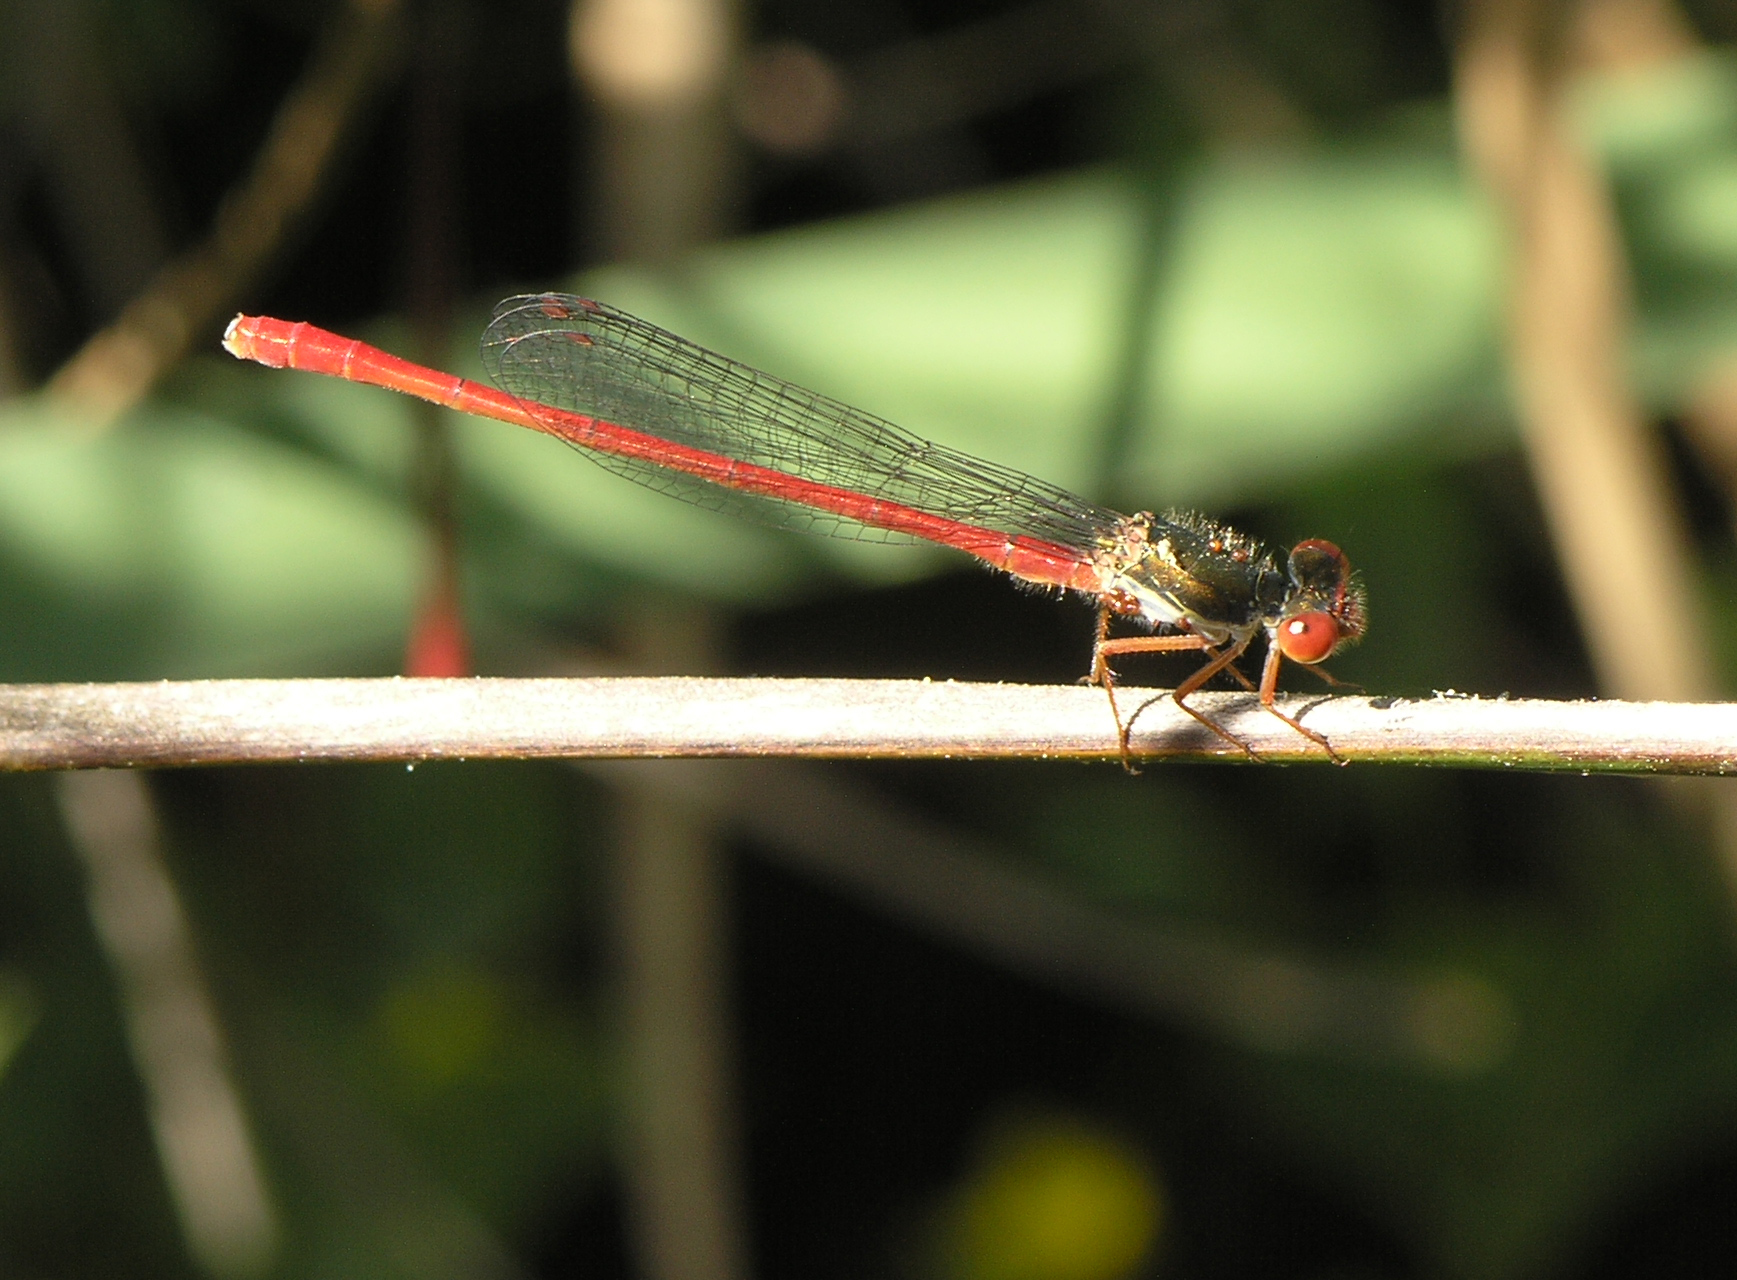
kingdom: Animalia
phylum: Arthropoda
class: Insecta
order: Odonata
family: Coenagrionidae
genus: Ceriagrion
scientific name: Ceriagrion tenellum
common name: Small red damselfly
